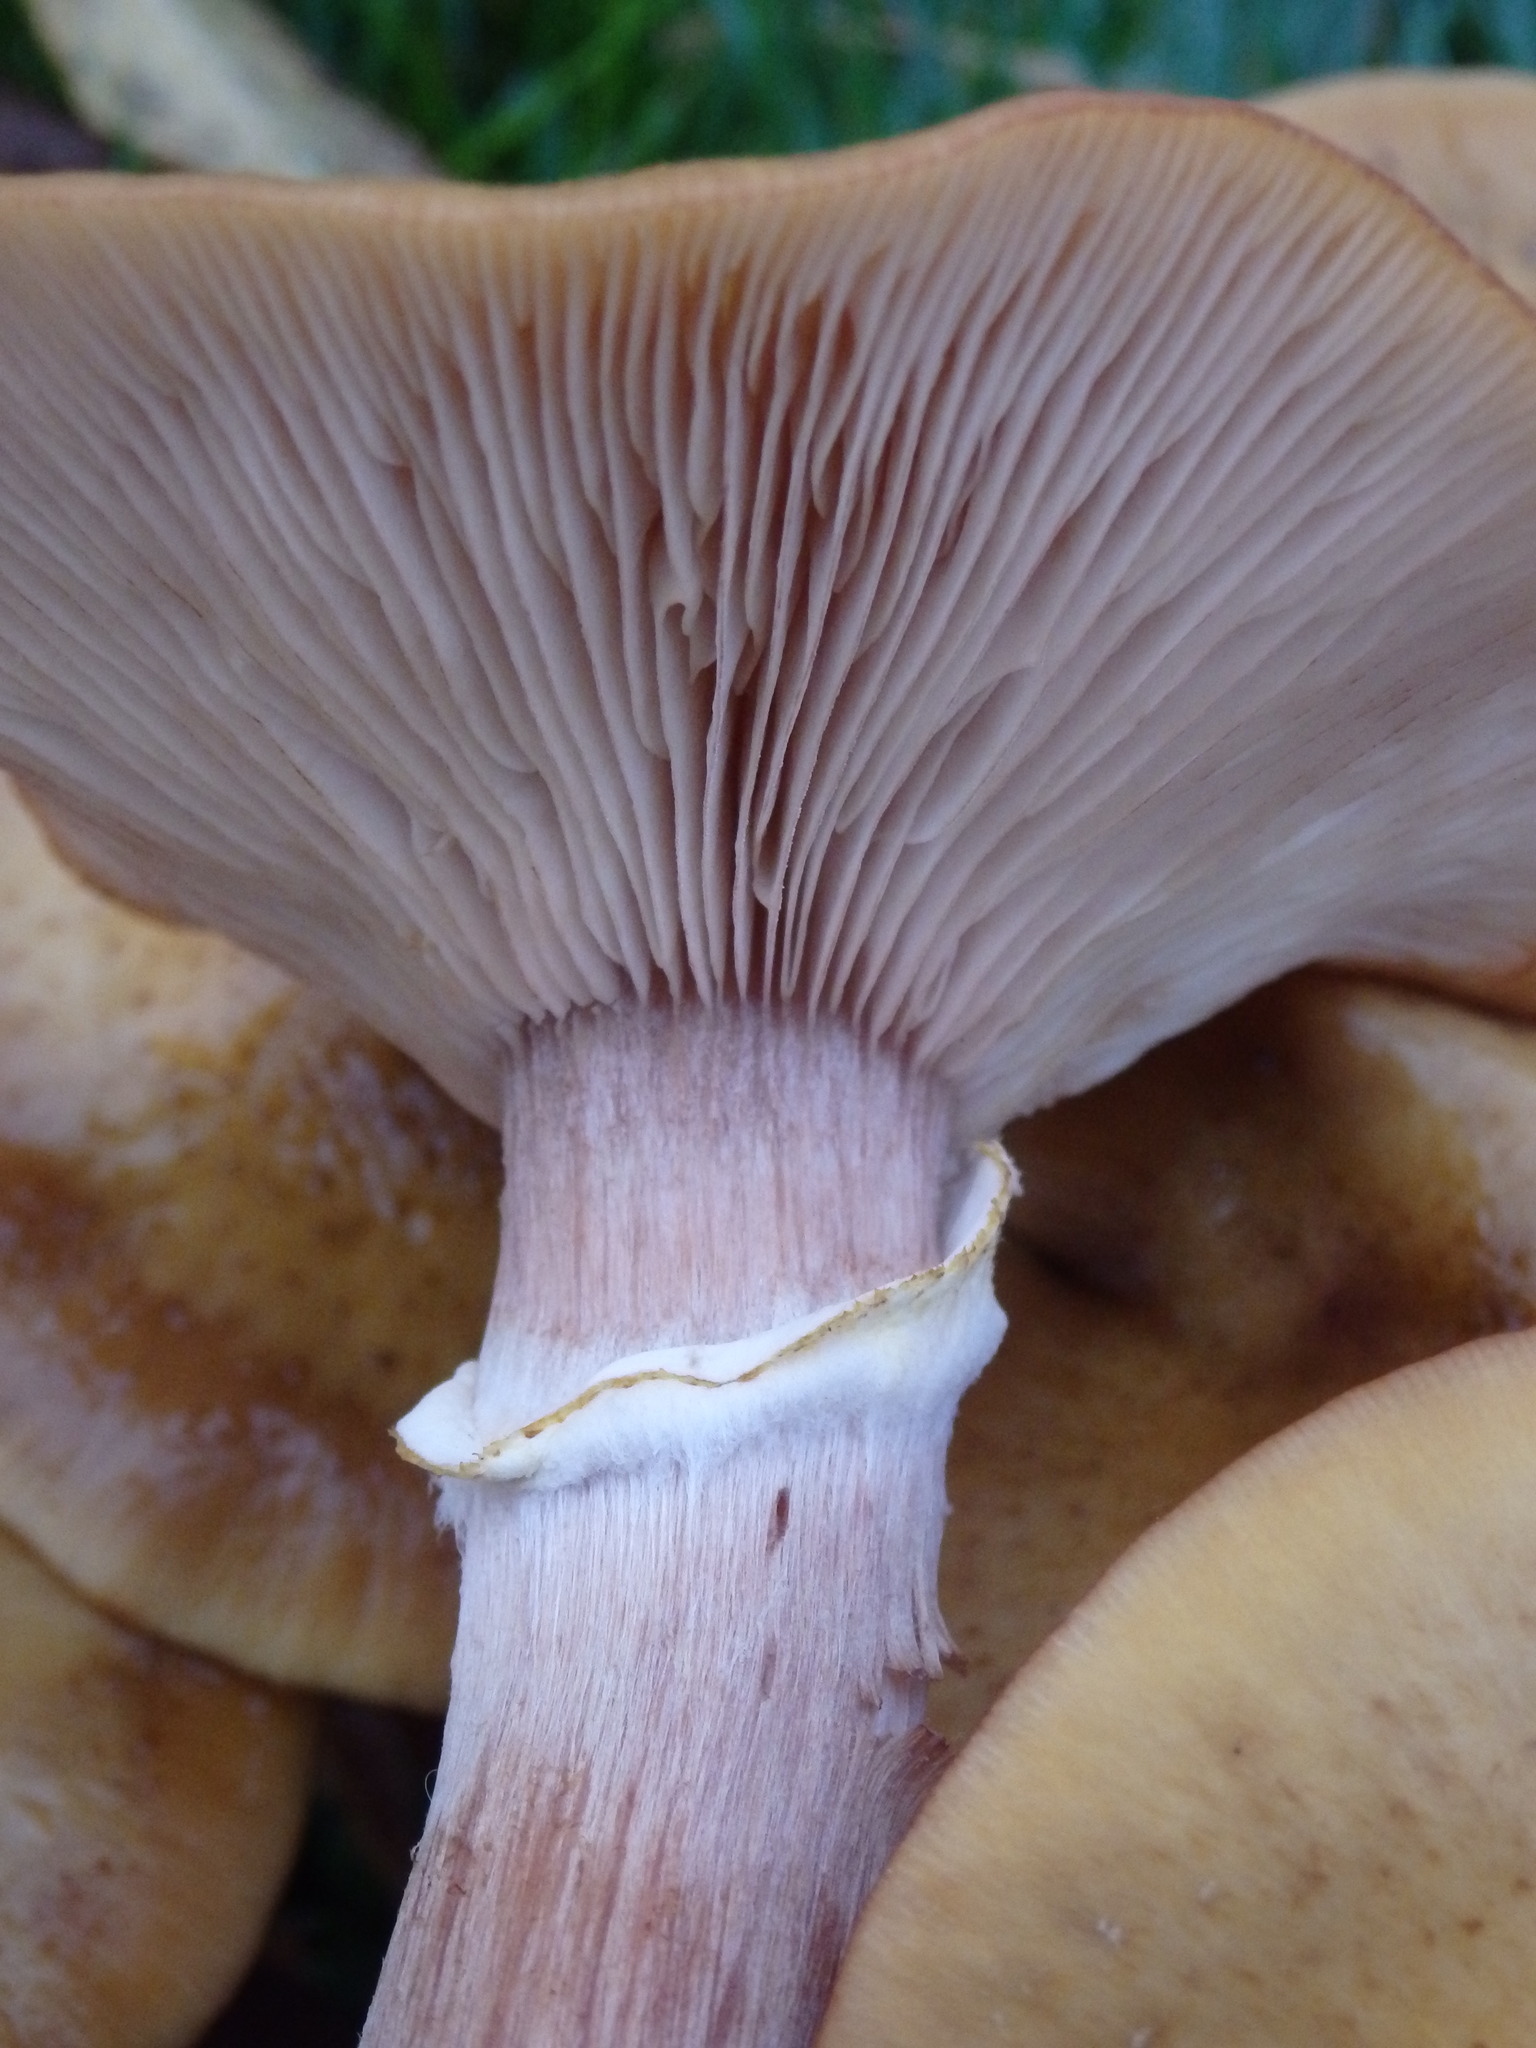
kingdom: Fungi
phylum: Basidiomycota
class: Agaricomycetes
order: Agaricales
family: Physalacriaceae
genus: Armillaria
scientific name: Armillaria mellea
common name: Honey fungus
